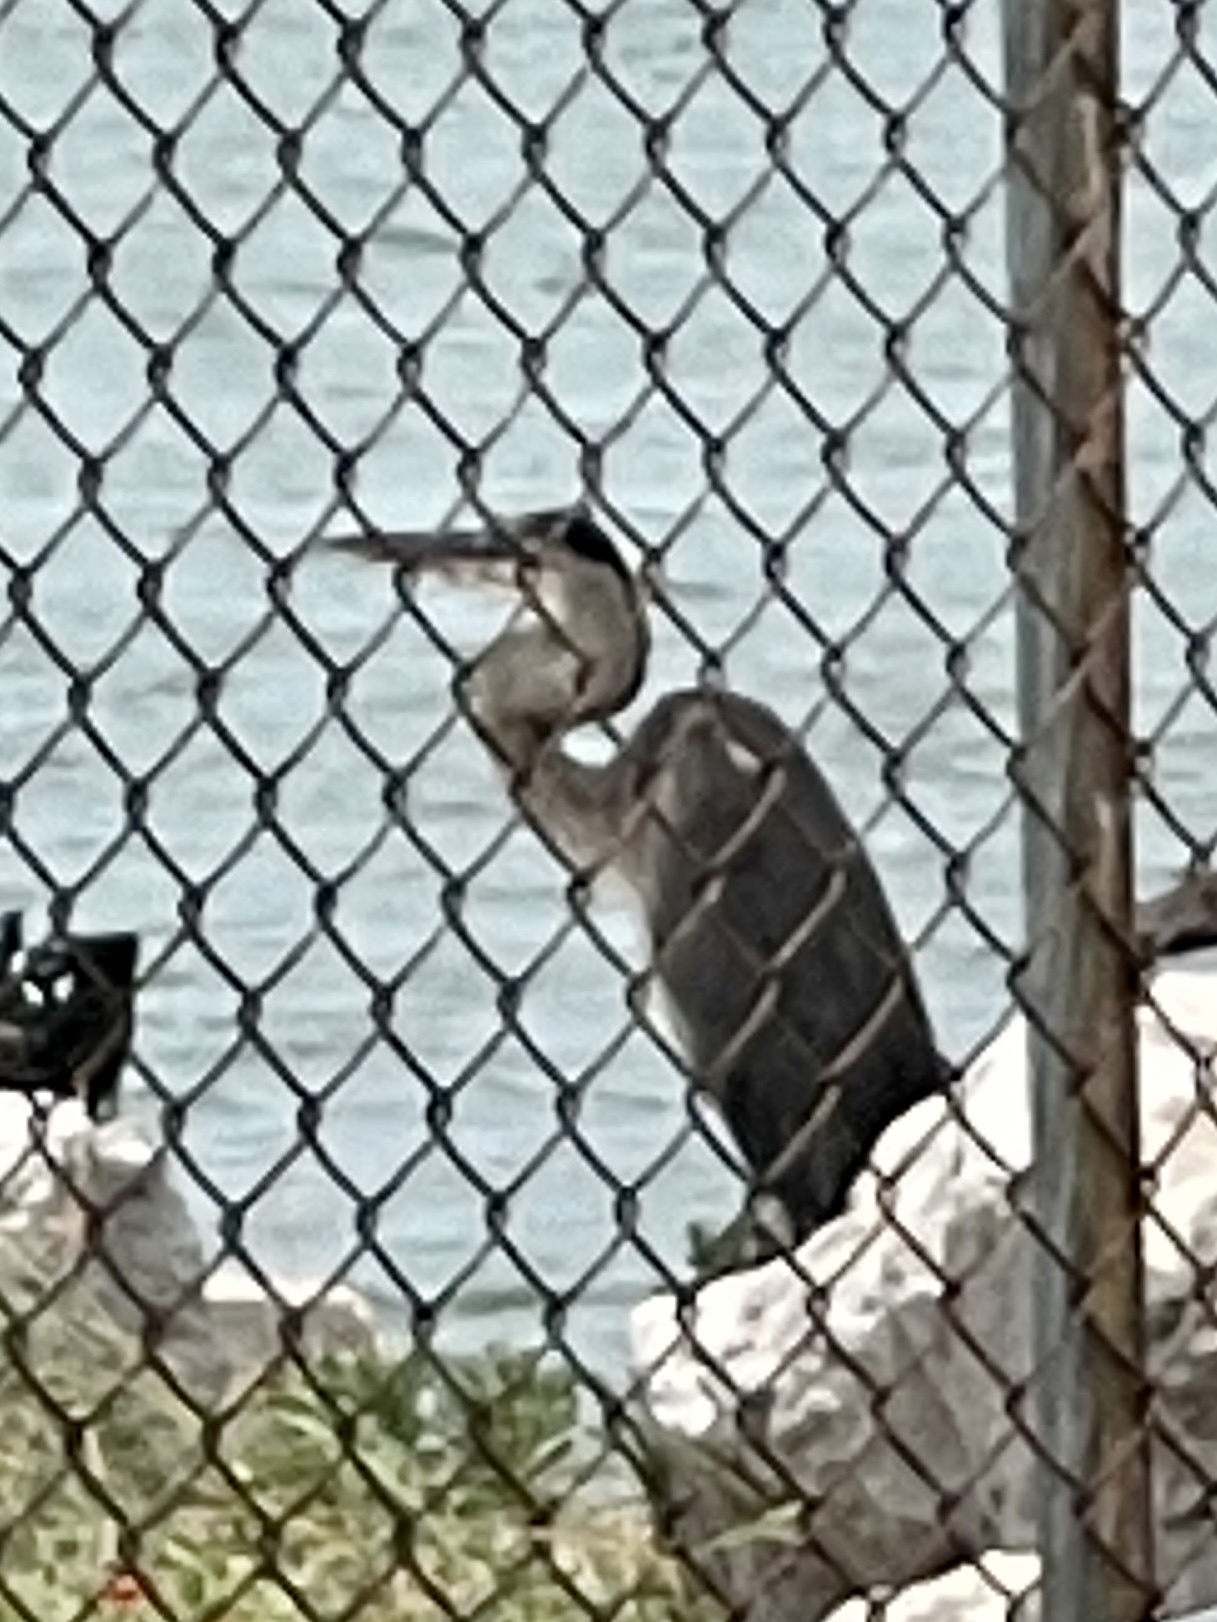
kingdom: Animalia
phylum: Chordata
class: Aves
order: Pelecaniformes
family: Ardeidae
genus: Ardea
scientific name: Ardea herodias
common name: Great blue heron
